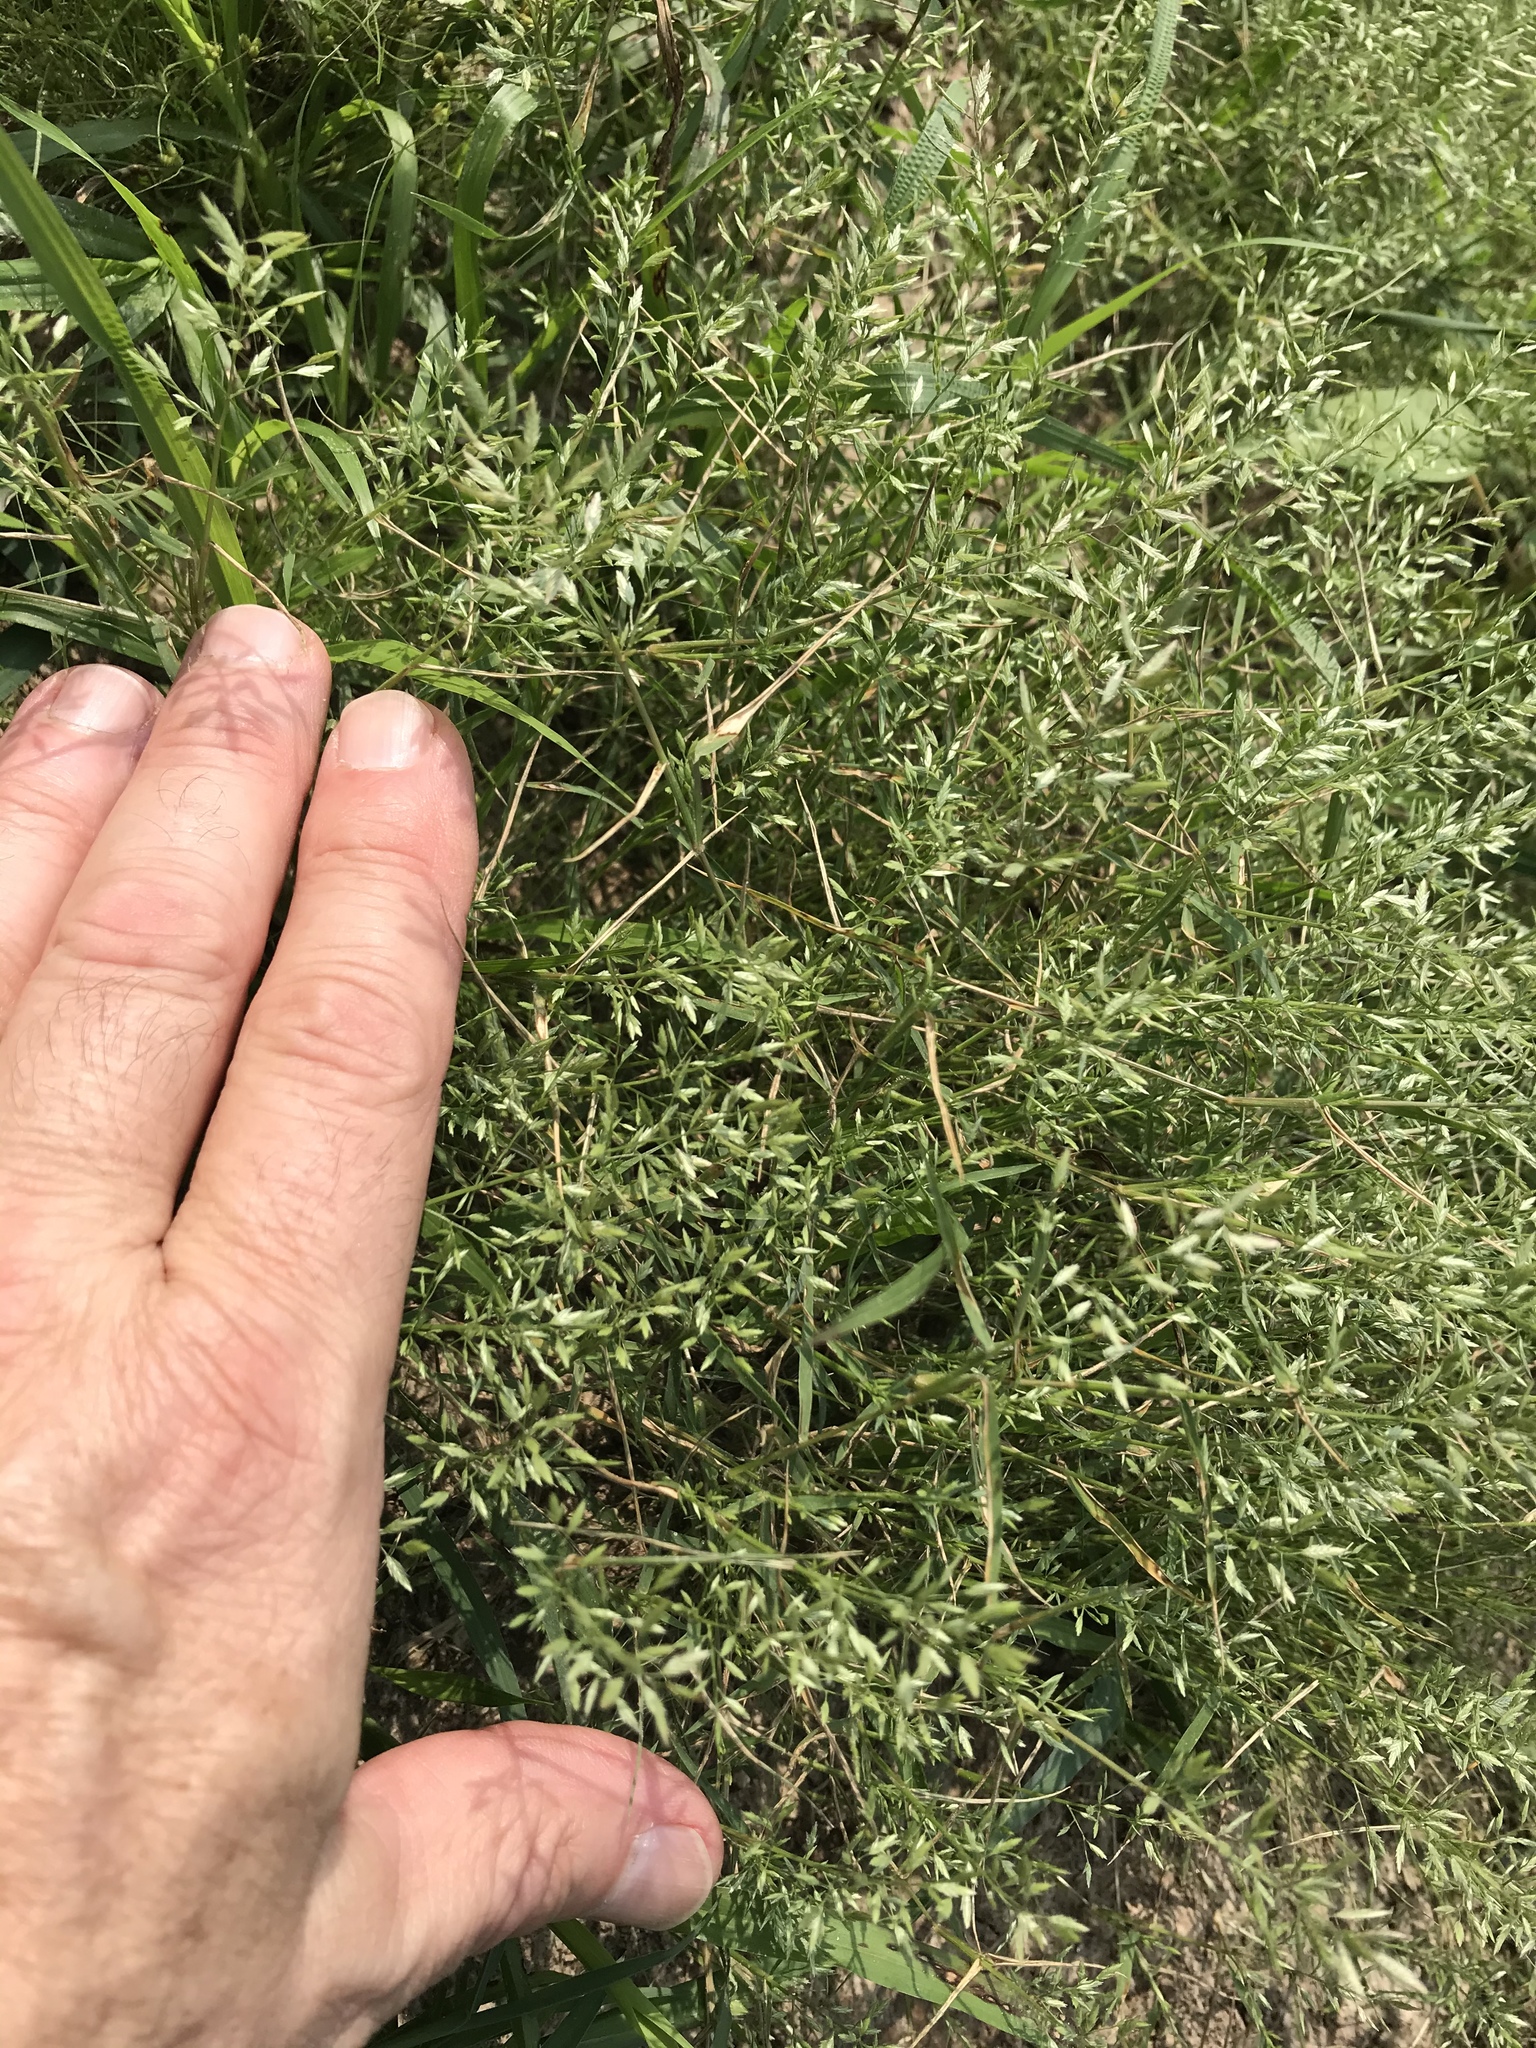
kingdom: Plantae
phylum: Tracheophyta
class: Liliopsida
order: Poales
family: Poaceae
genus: Eragrostis
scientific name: Eragrostis tephrosanthos
